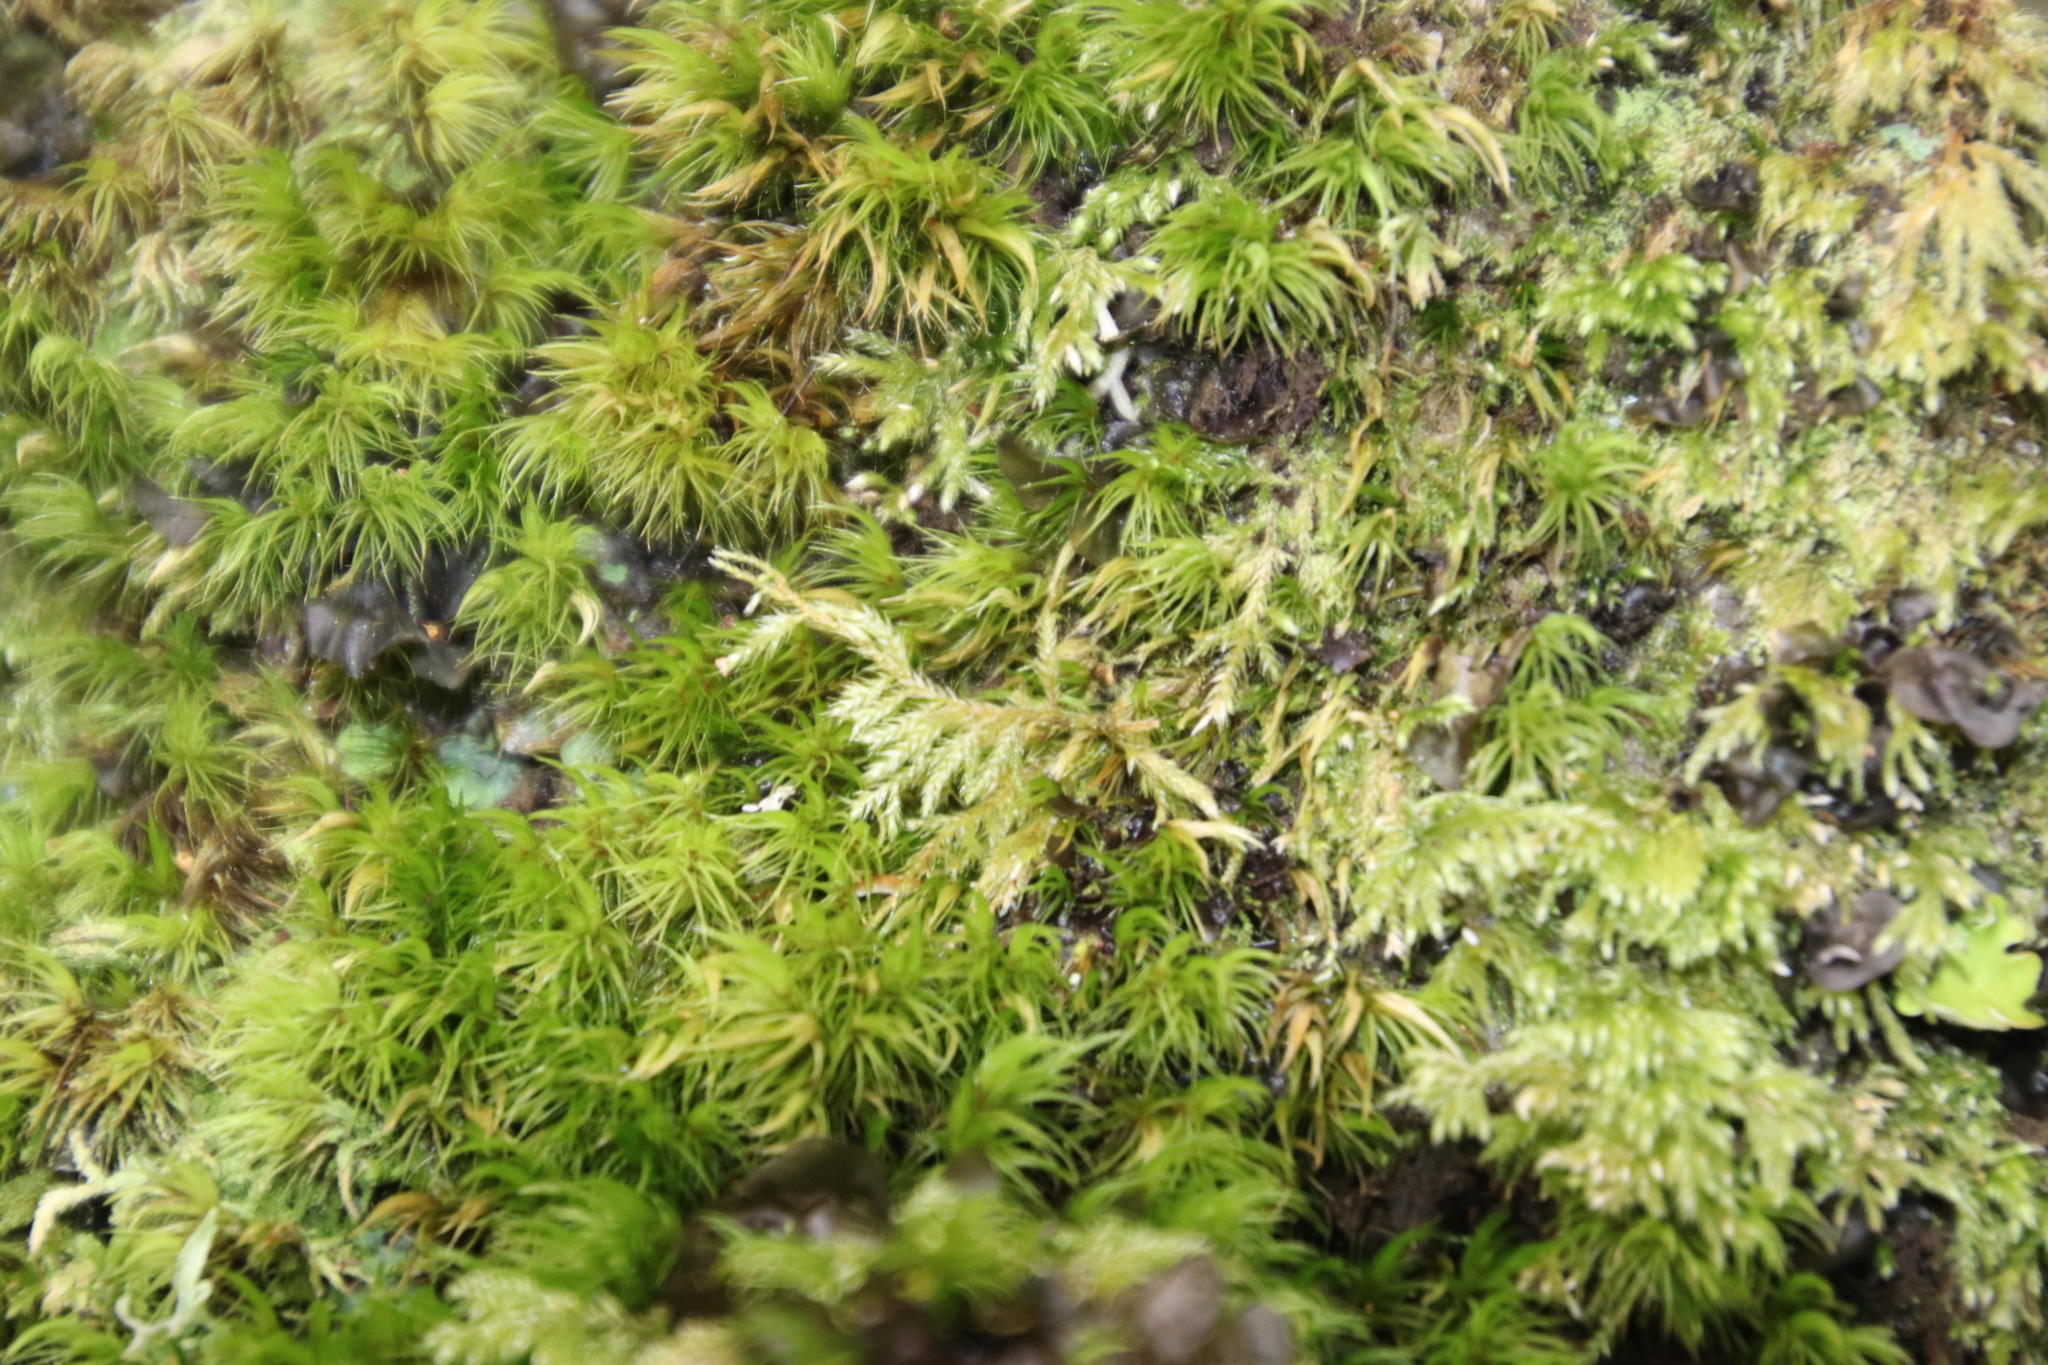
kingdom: Plantae
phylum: Bryophyta
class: Bryopsida
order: Dicranales
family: Dicranaceae
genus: Leucoloma
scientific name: Leucoloma sprengelianum
